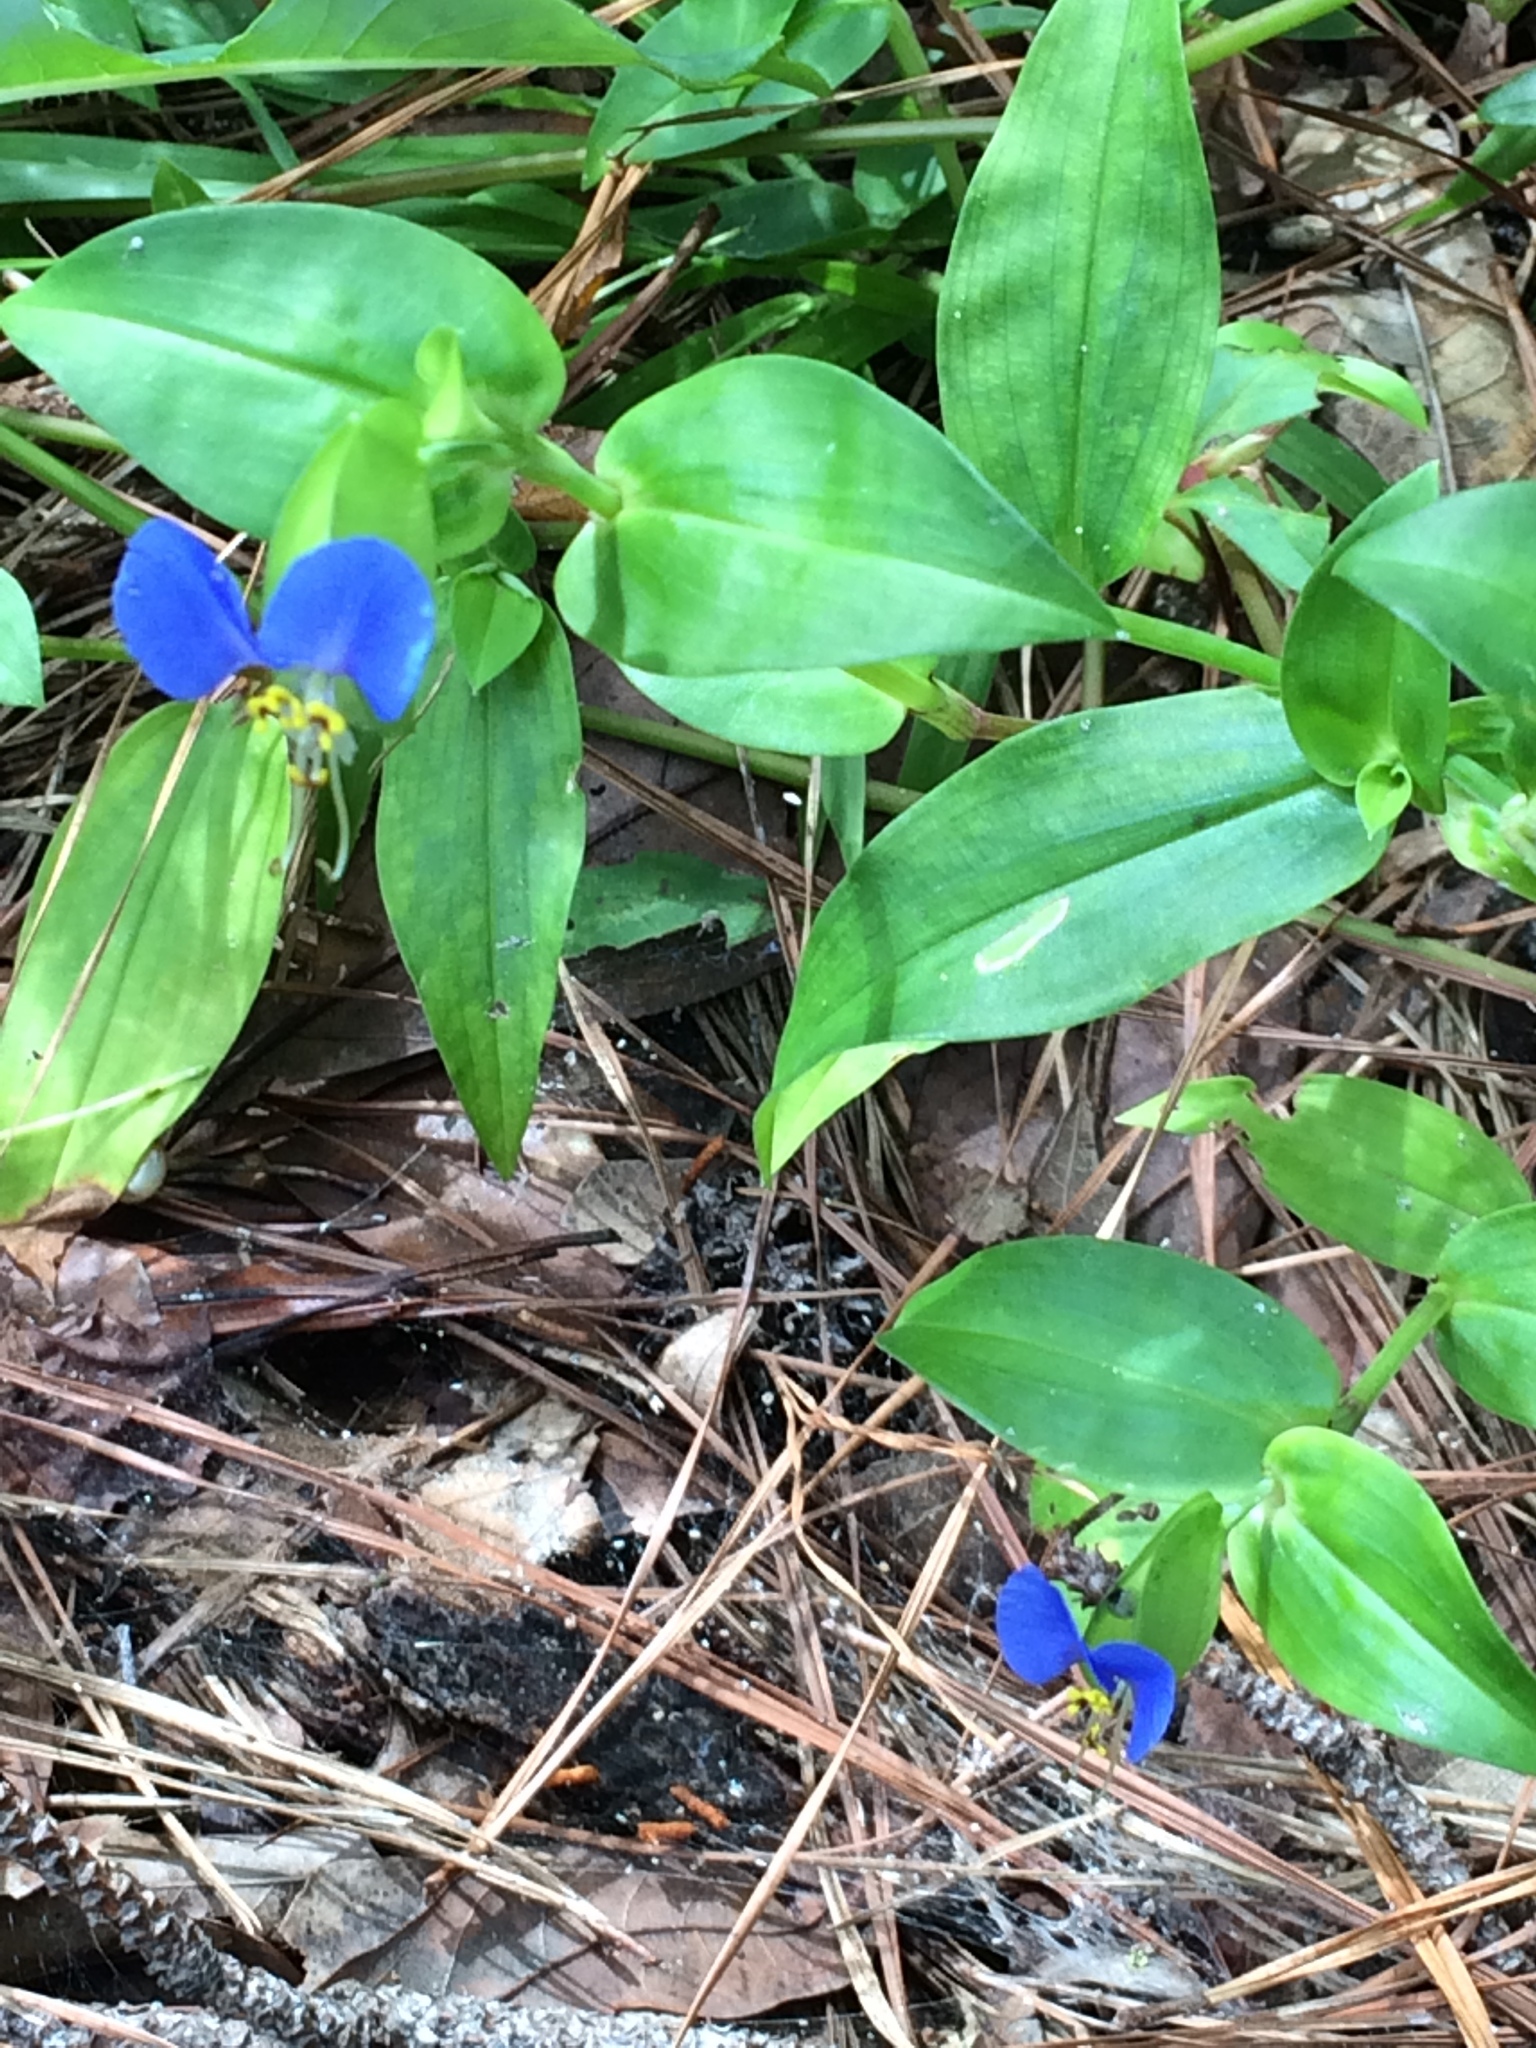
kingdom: Plantae
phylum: Tracheophyta
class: Liliopsida
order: Commelinales
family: Commelinaceae
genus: Commelina
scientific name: Commelina communis
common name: Asiatic dayflower
